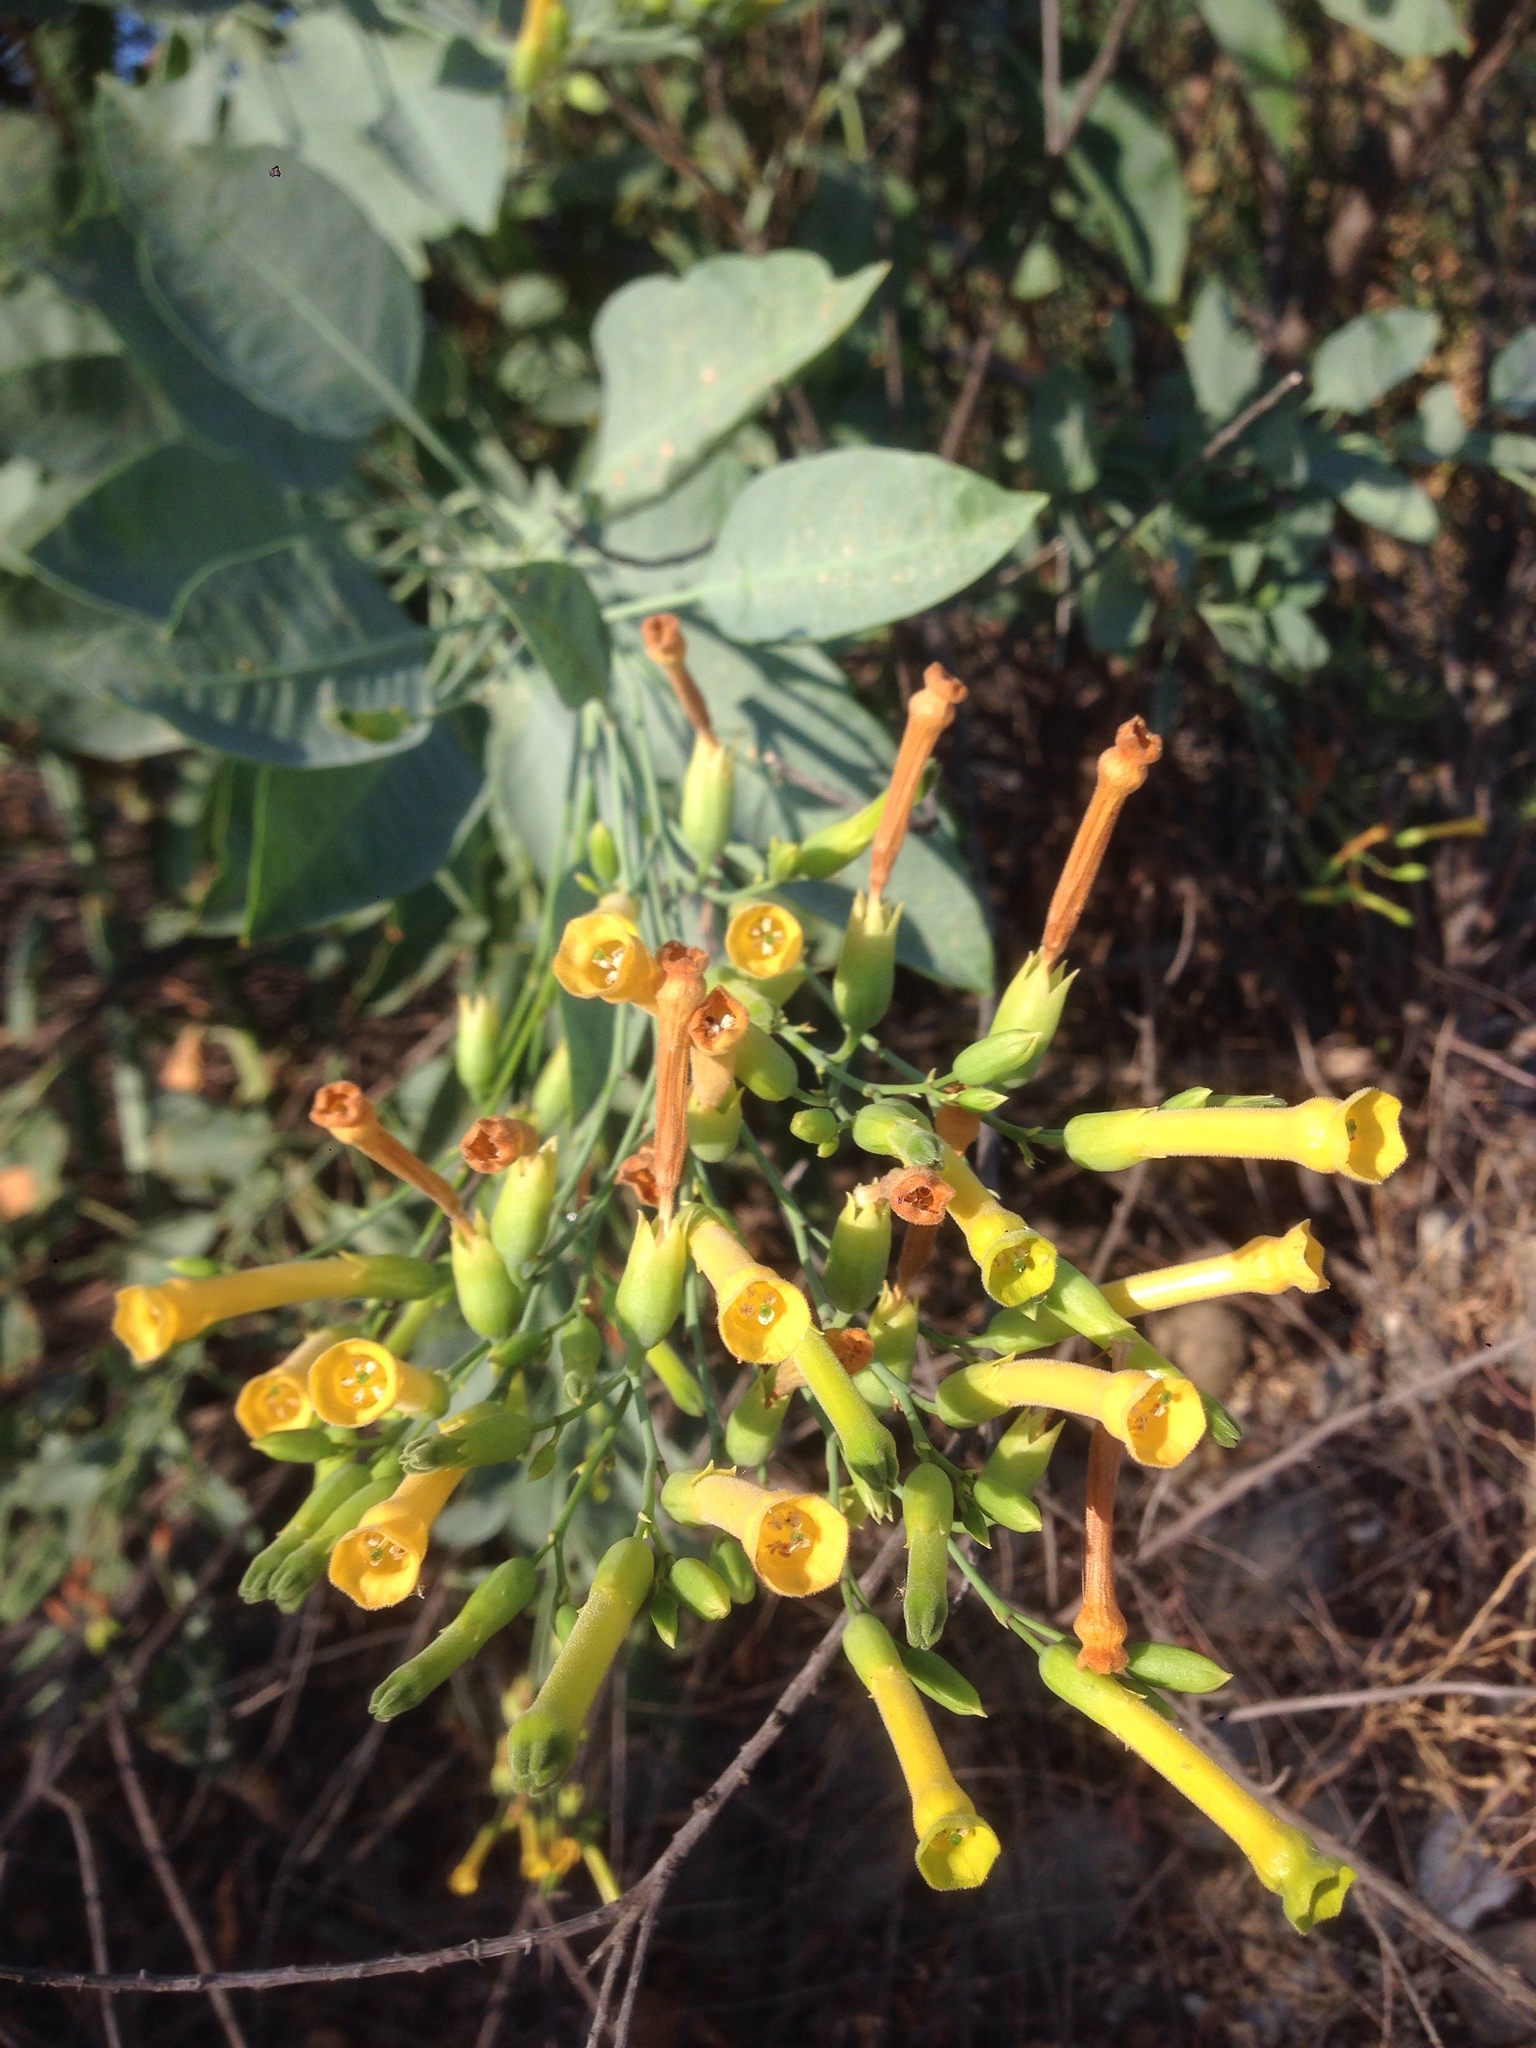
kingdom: Plantae
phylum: Tracheophyta
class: Magnoliopsida
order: Solanales
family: Solanaceae
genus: Nicotiana
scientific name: Nicotiana glauca
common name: Tree tobacco
